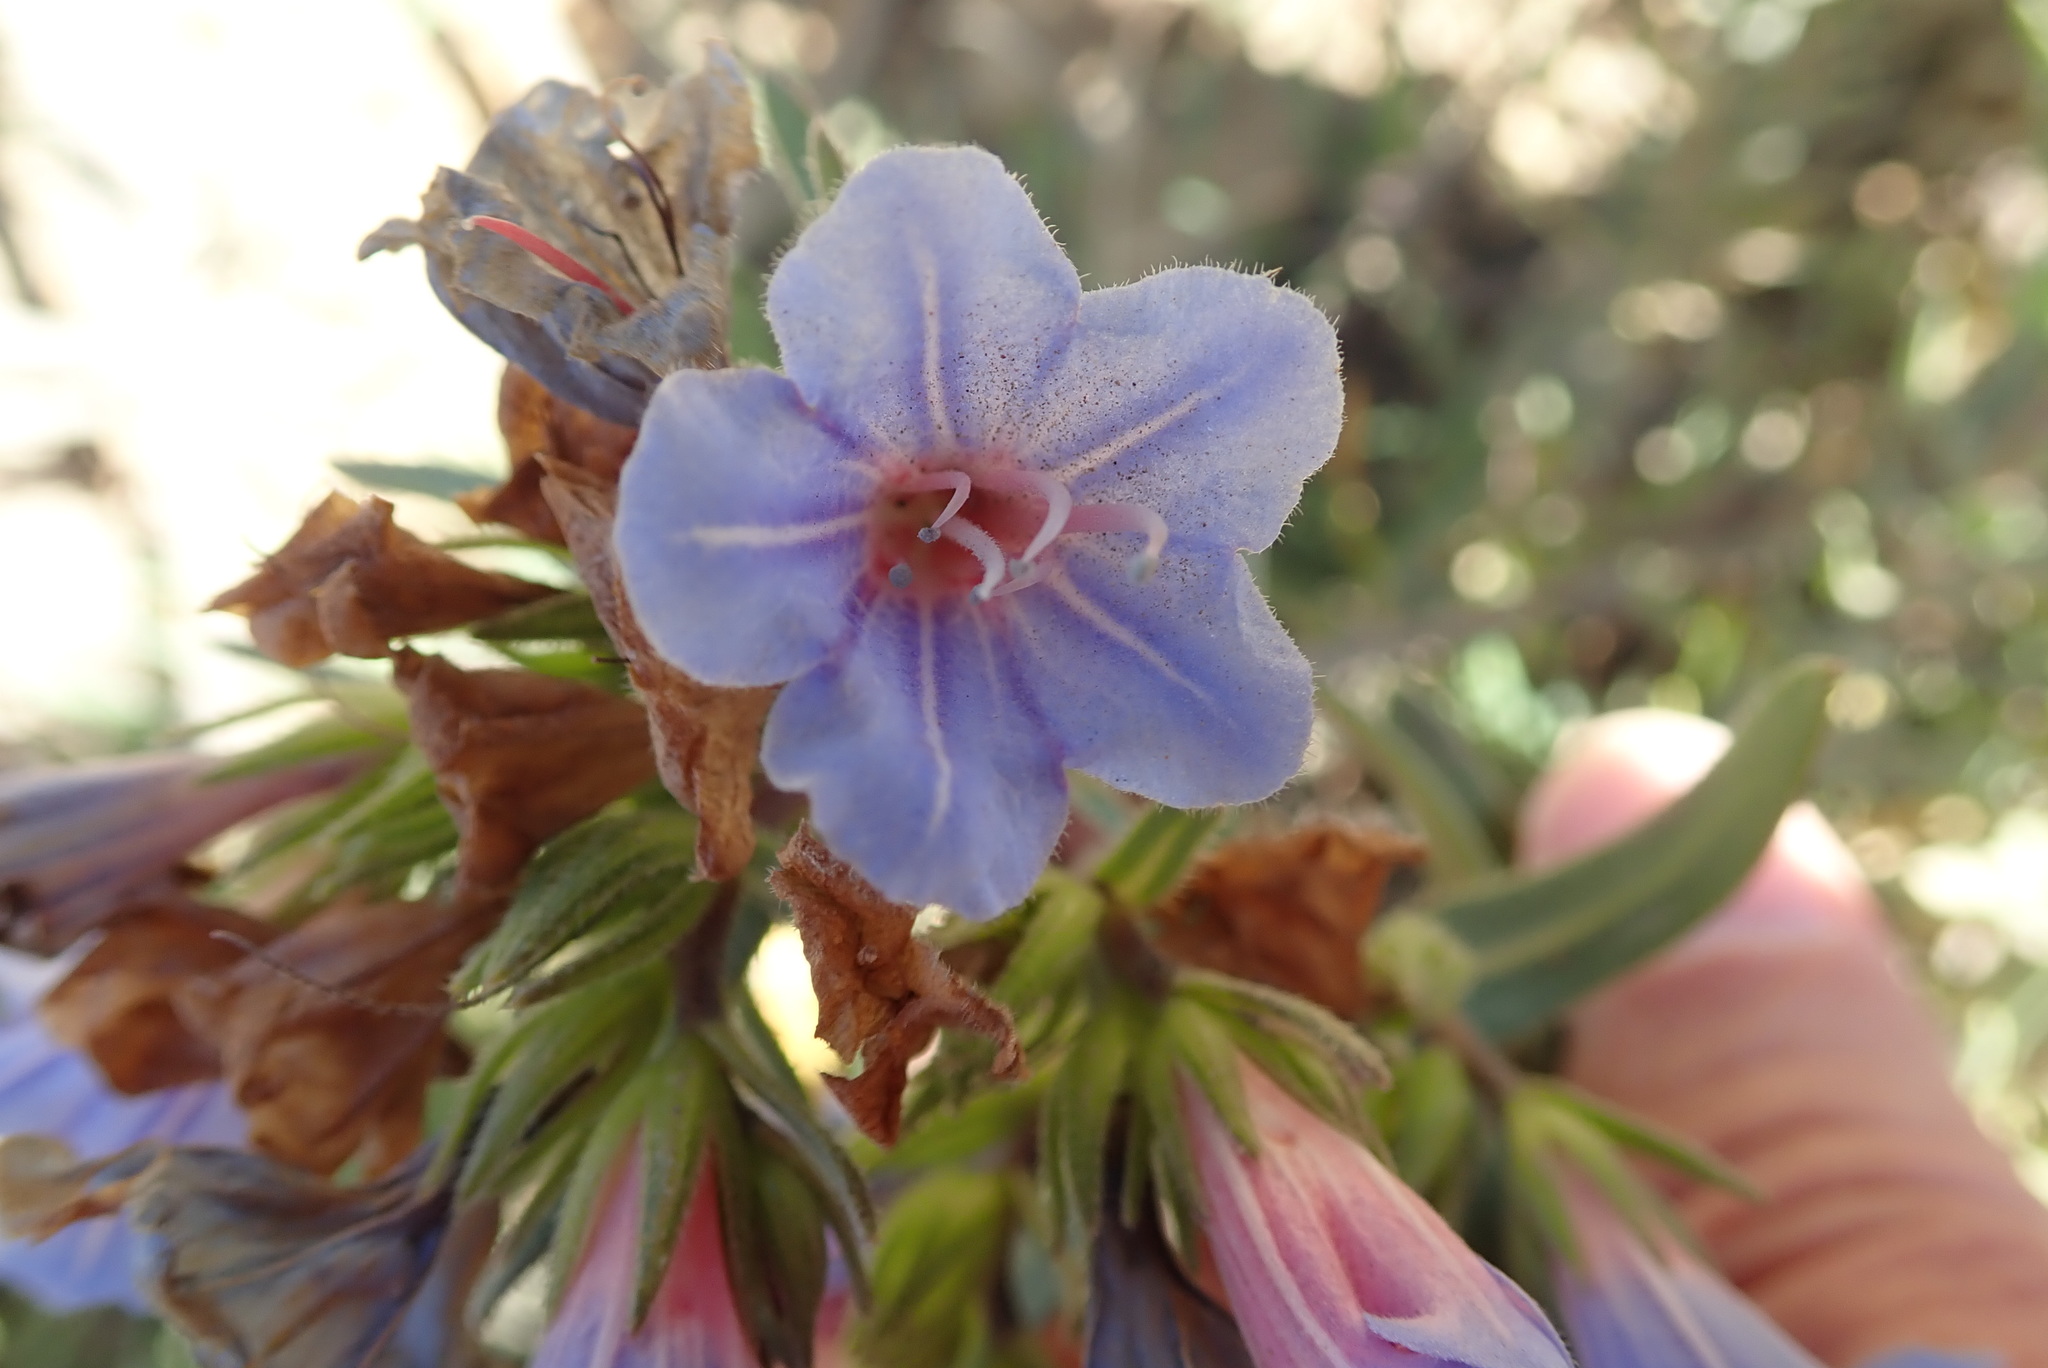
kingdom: Plantae
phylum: Tracheophyta
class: Magnoliopsida
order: Boraginales
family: Boraginaceae
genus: Lobostemon
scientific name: Lobostemon fruticosus
